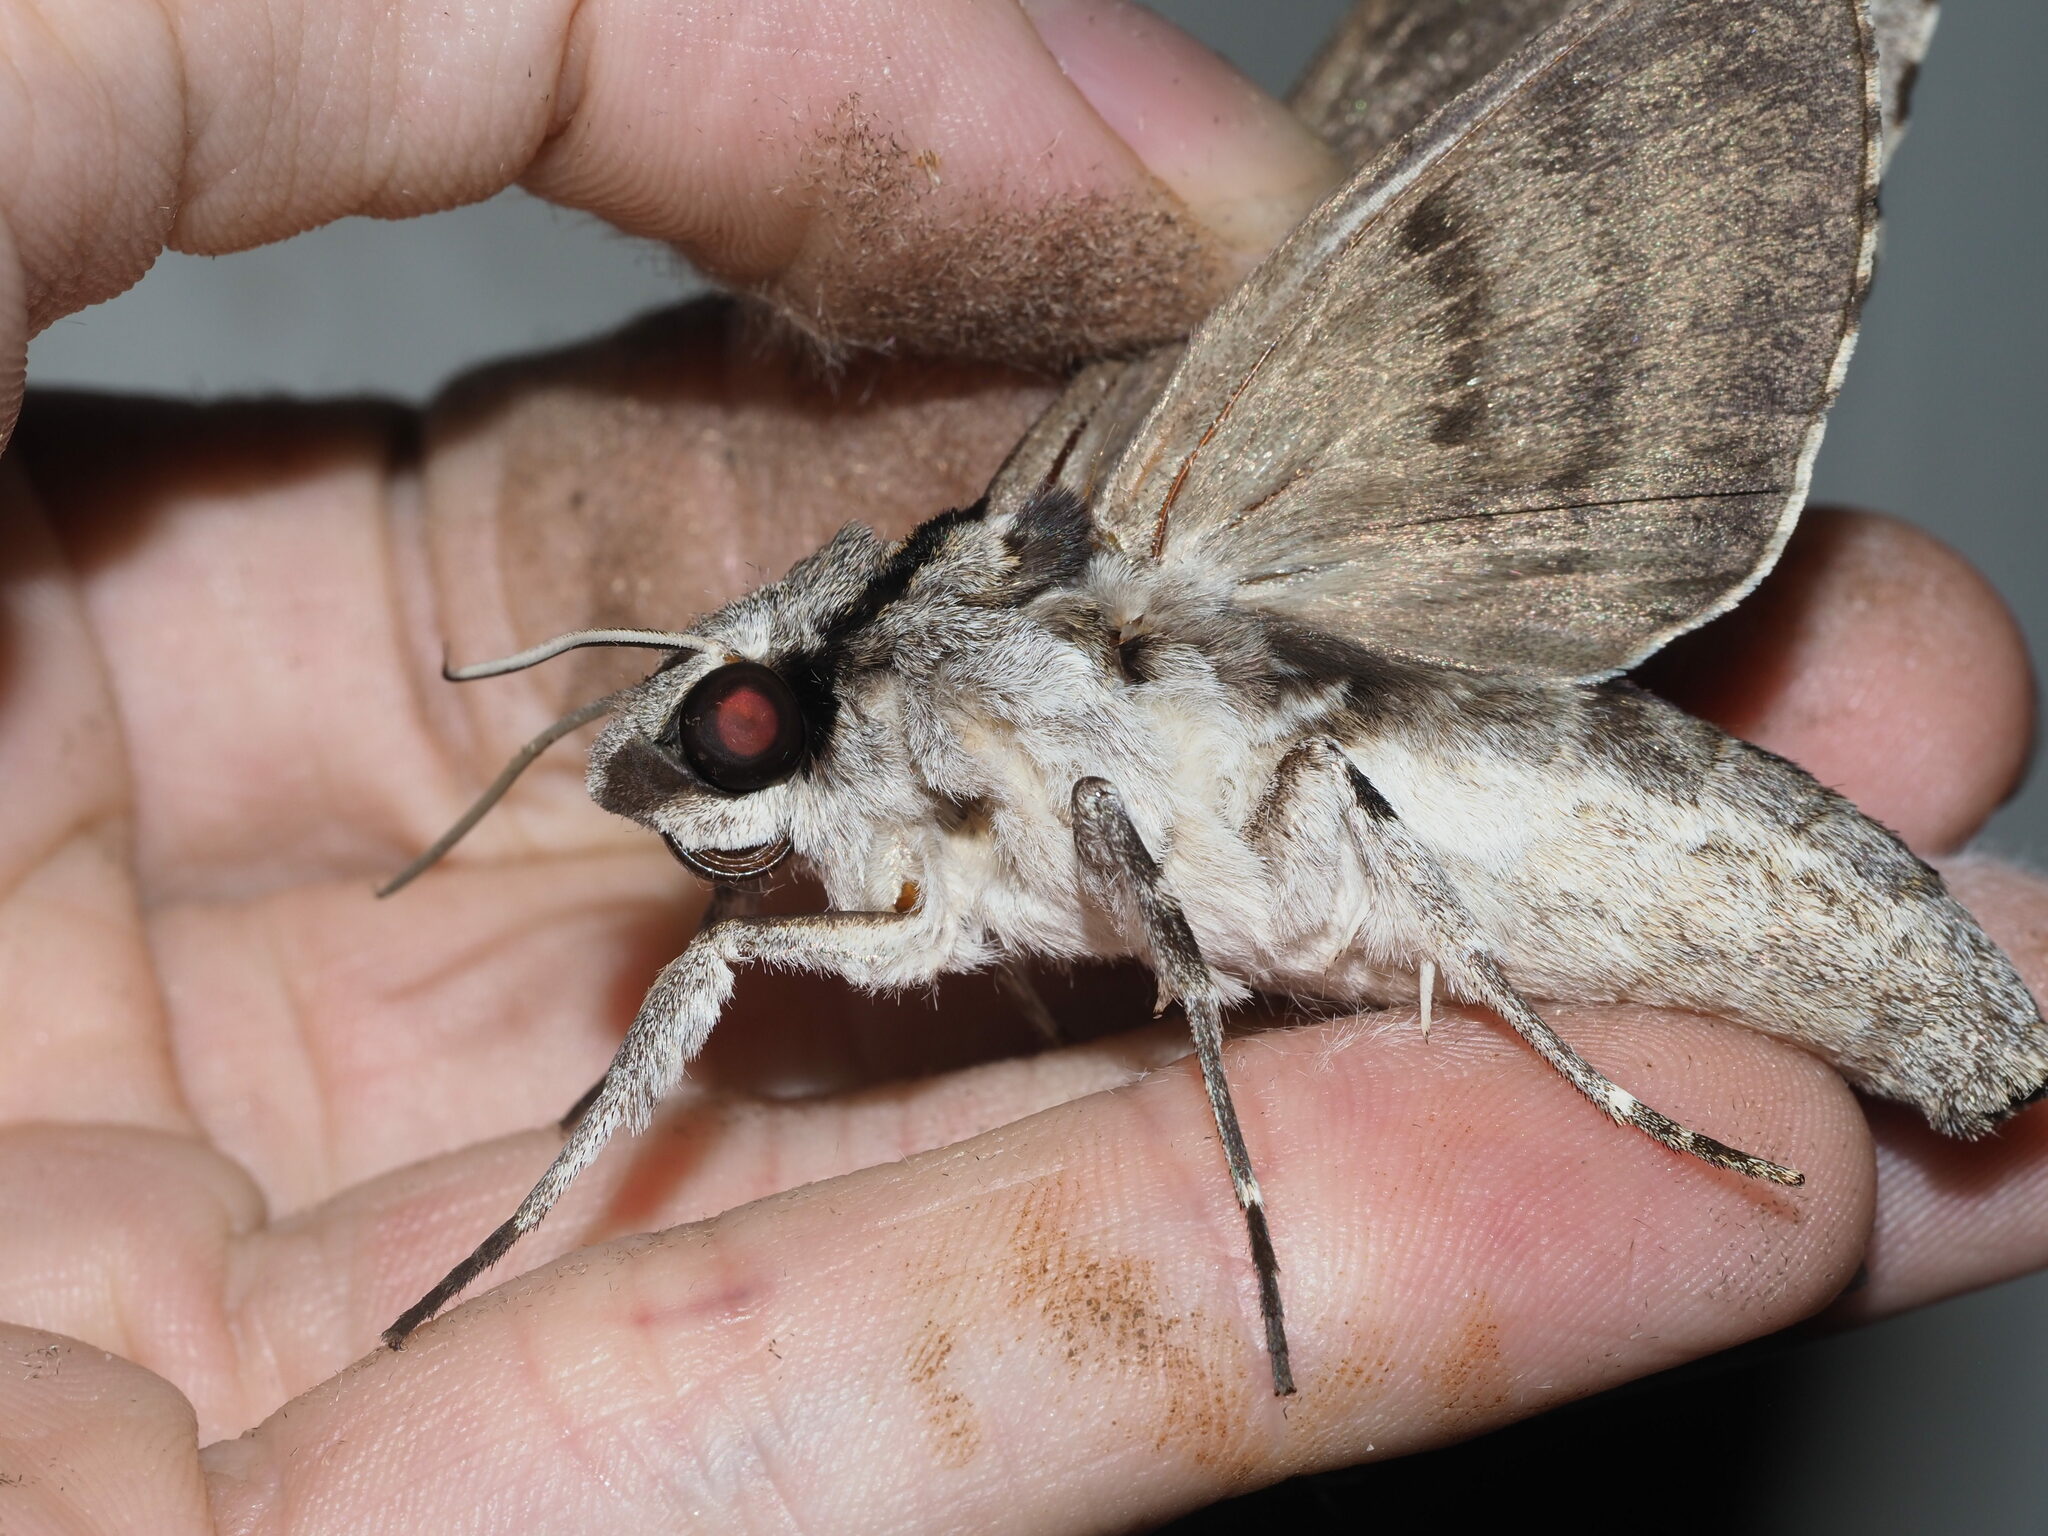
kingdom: Animalia
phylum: Arthropoda
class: Insecta
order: Lepidoptera
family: Sphingidae
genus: Psilogramma
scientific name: Psilogramma increta
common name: Gray hawk moth
